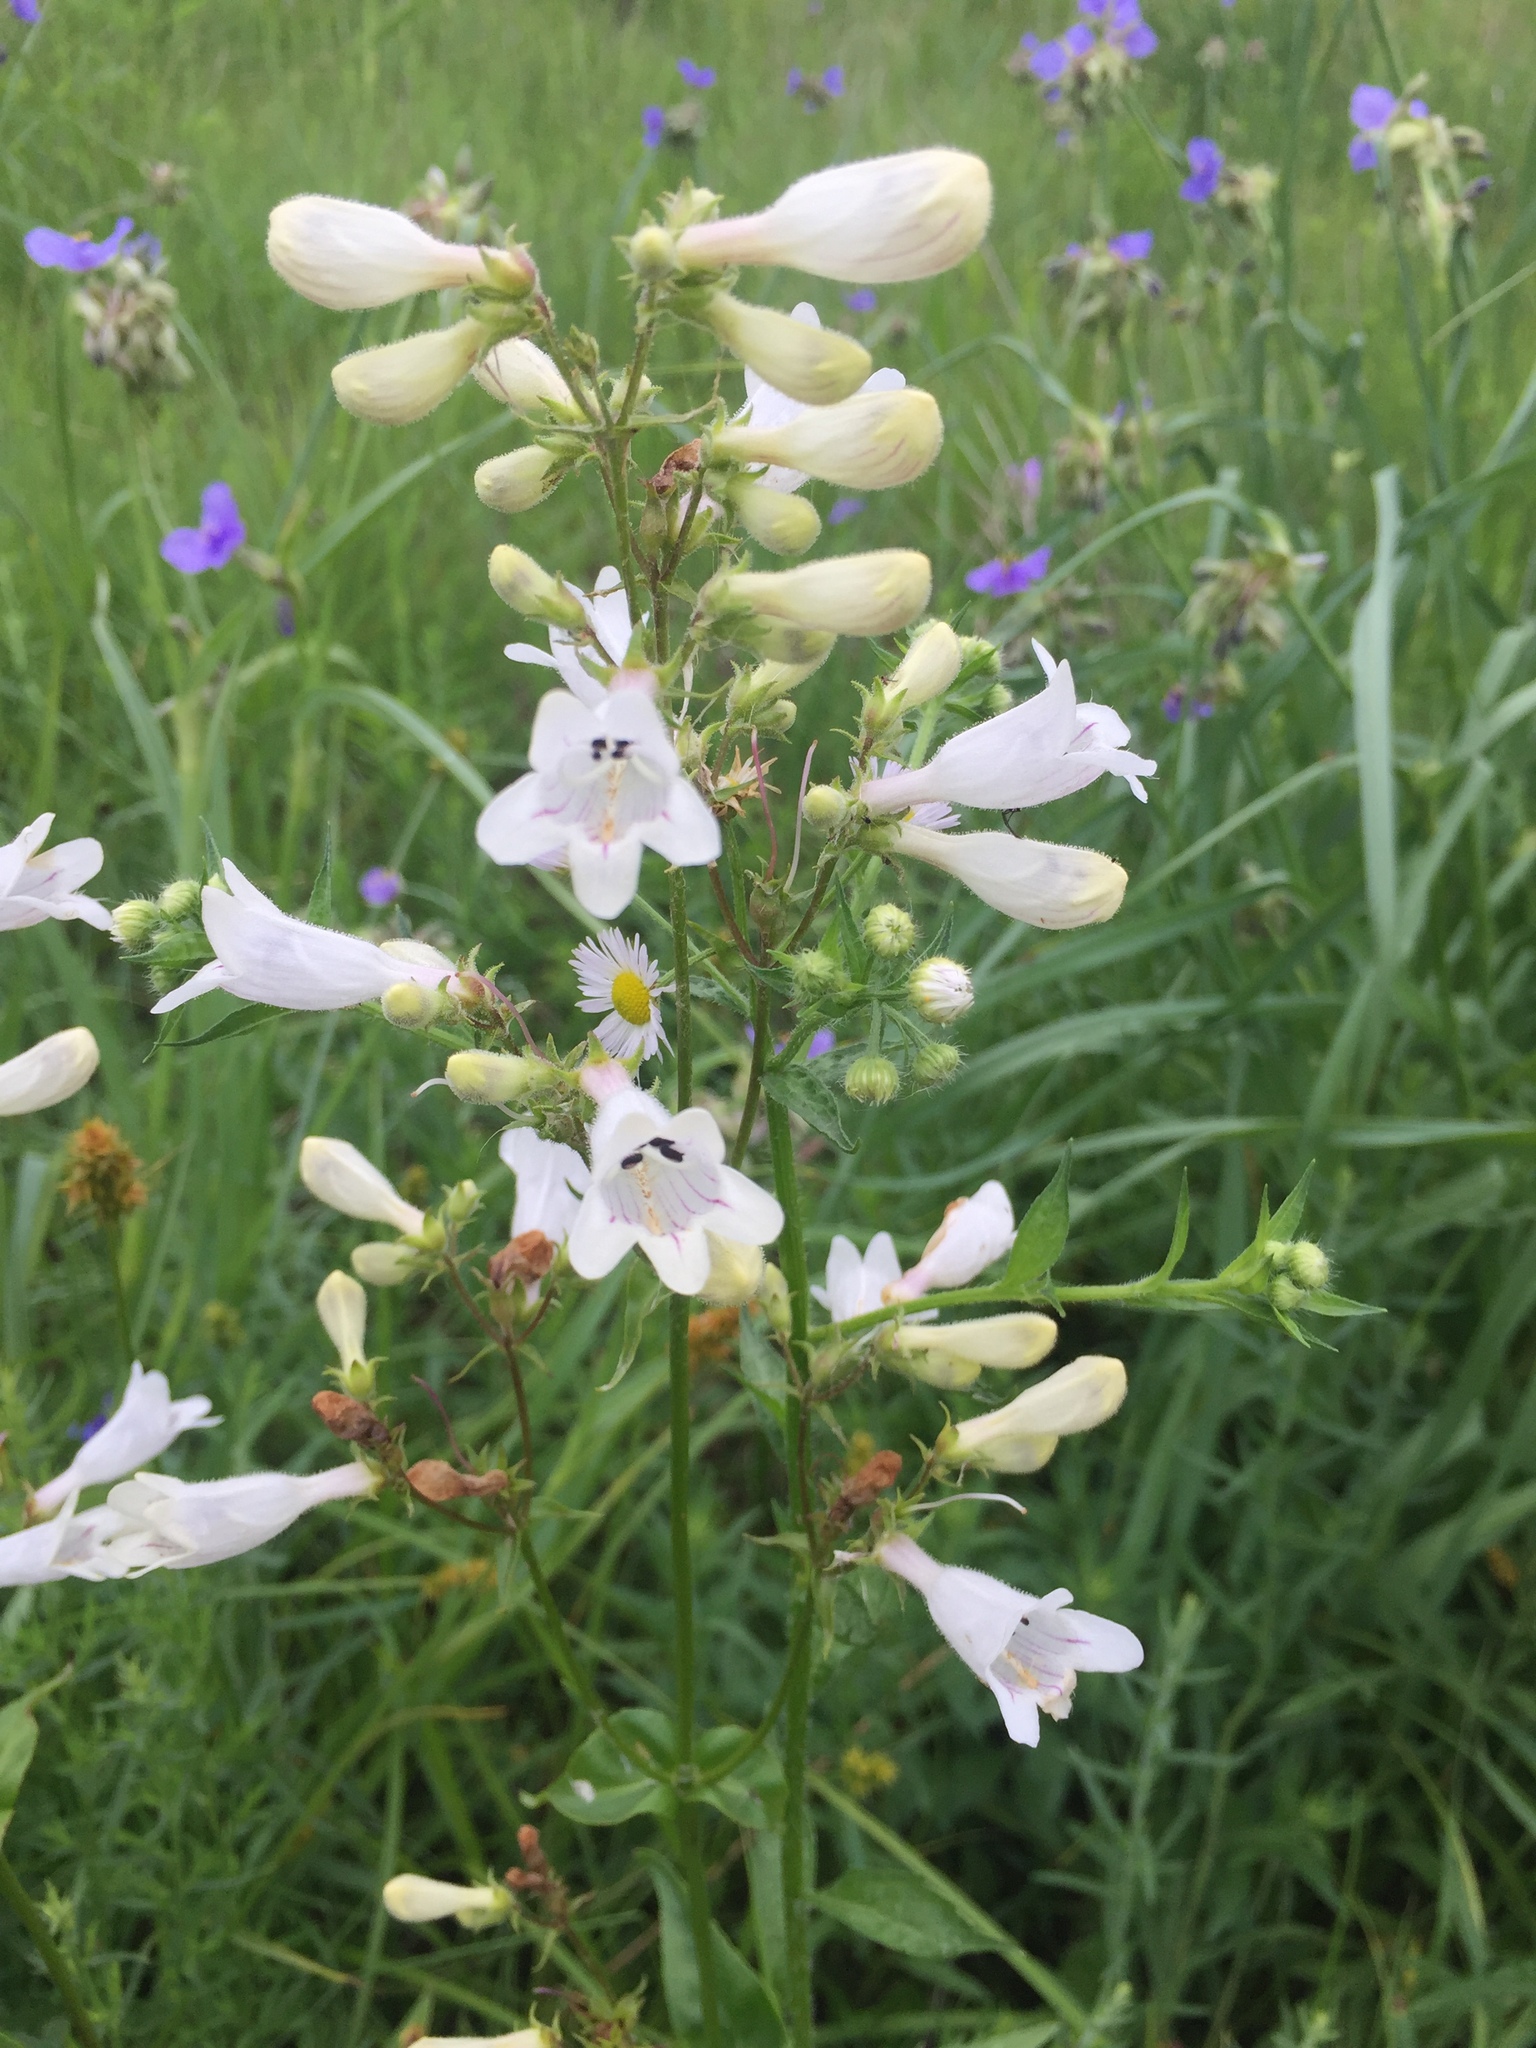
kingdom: Plantae
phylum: Tracheophyta
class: Magnoliopsida
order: Lamiales
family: Plantaginaceae
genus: Penstemon
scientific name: Penstemon digitalis
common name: Foxglove beardtongue
